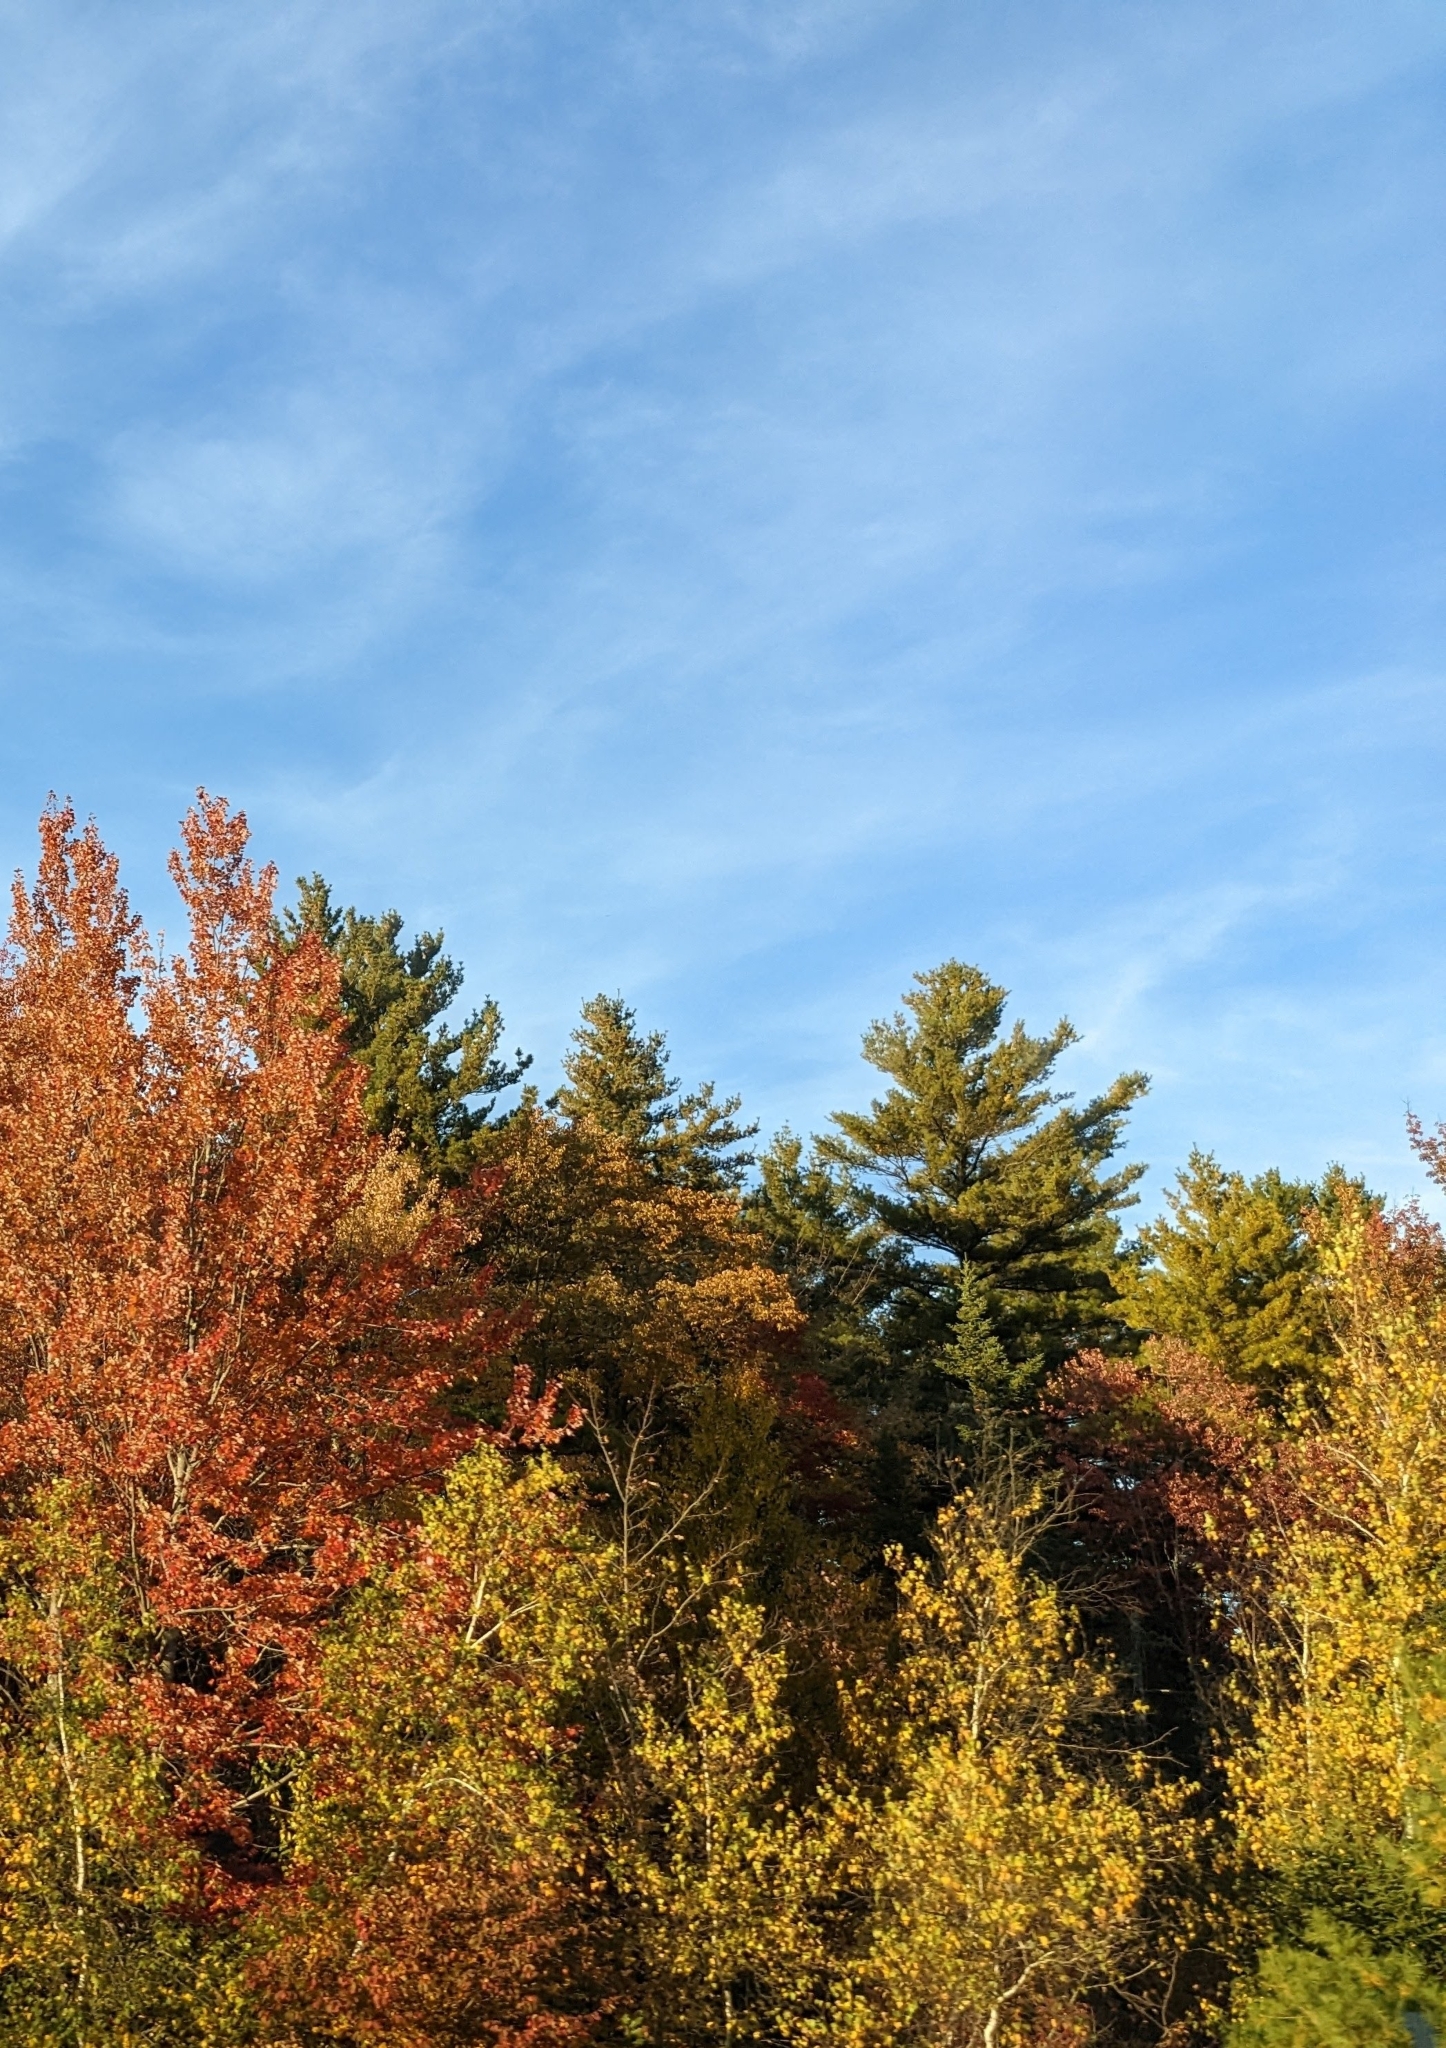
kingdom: Plantae
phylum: Tracheophyta
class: Pinopsida
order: Pinales
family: Pinaceae
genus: Pinus
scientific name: Pinus strobus
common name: Weymouth pine
